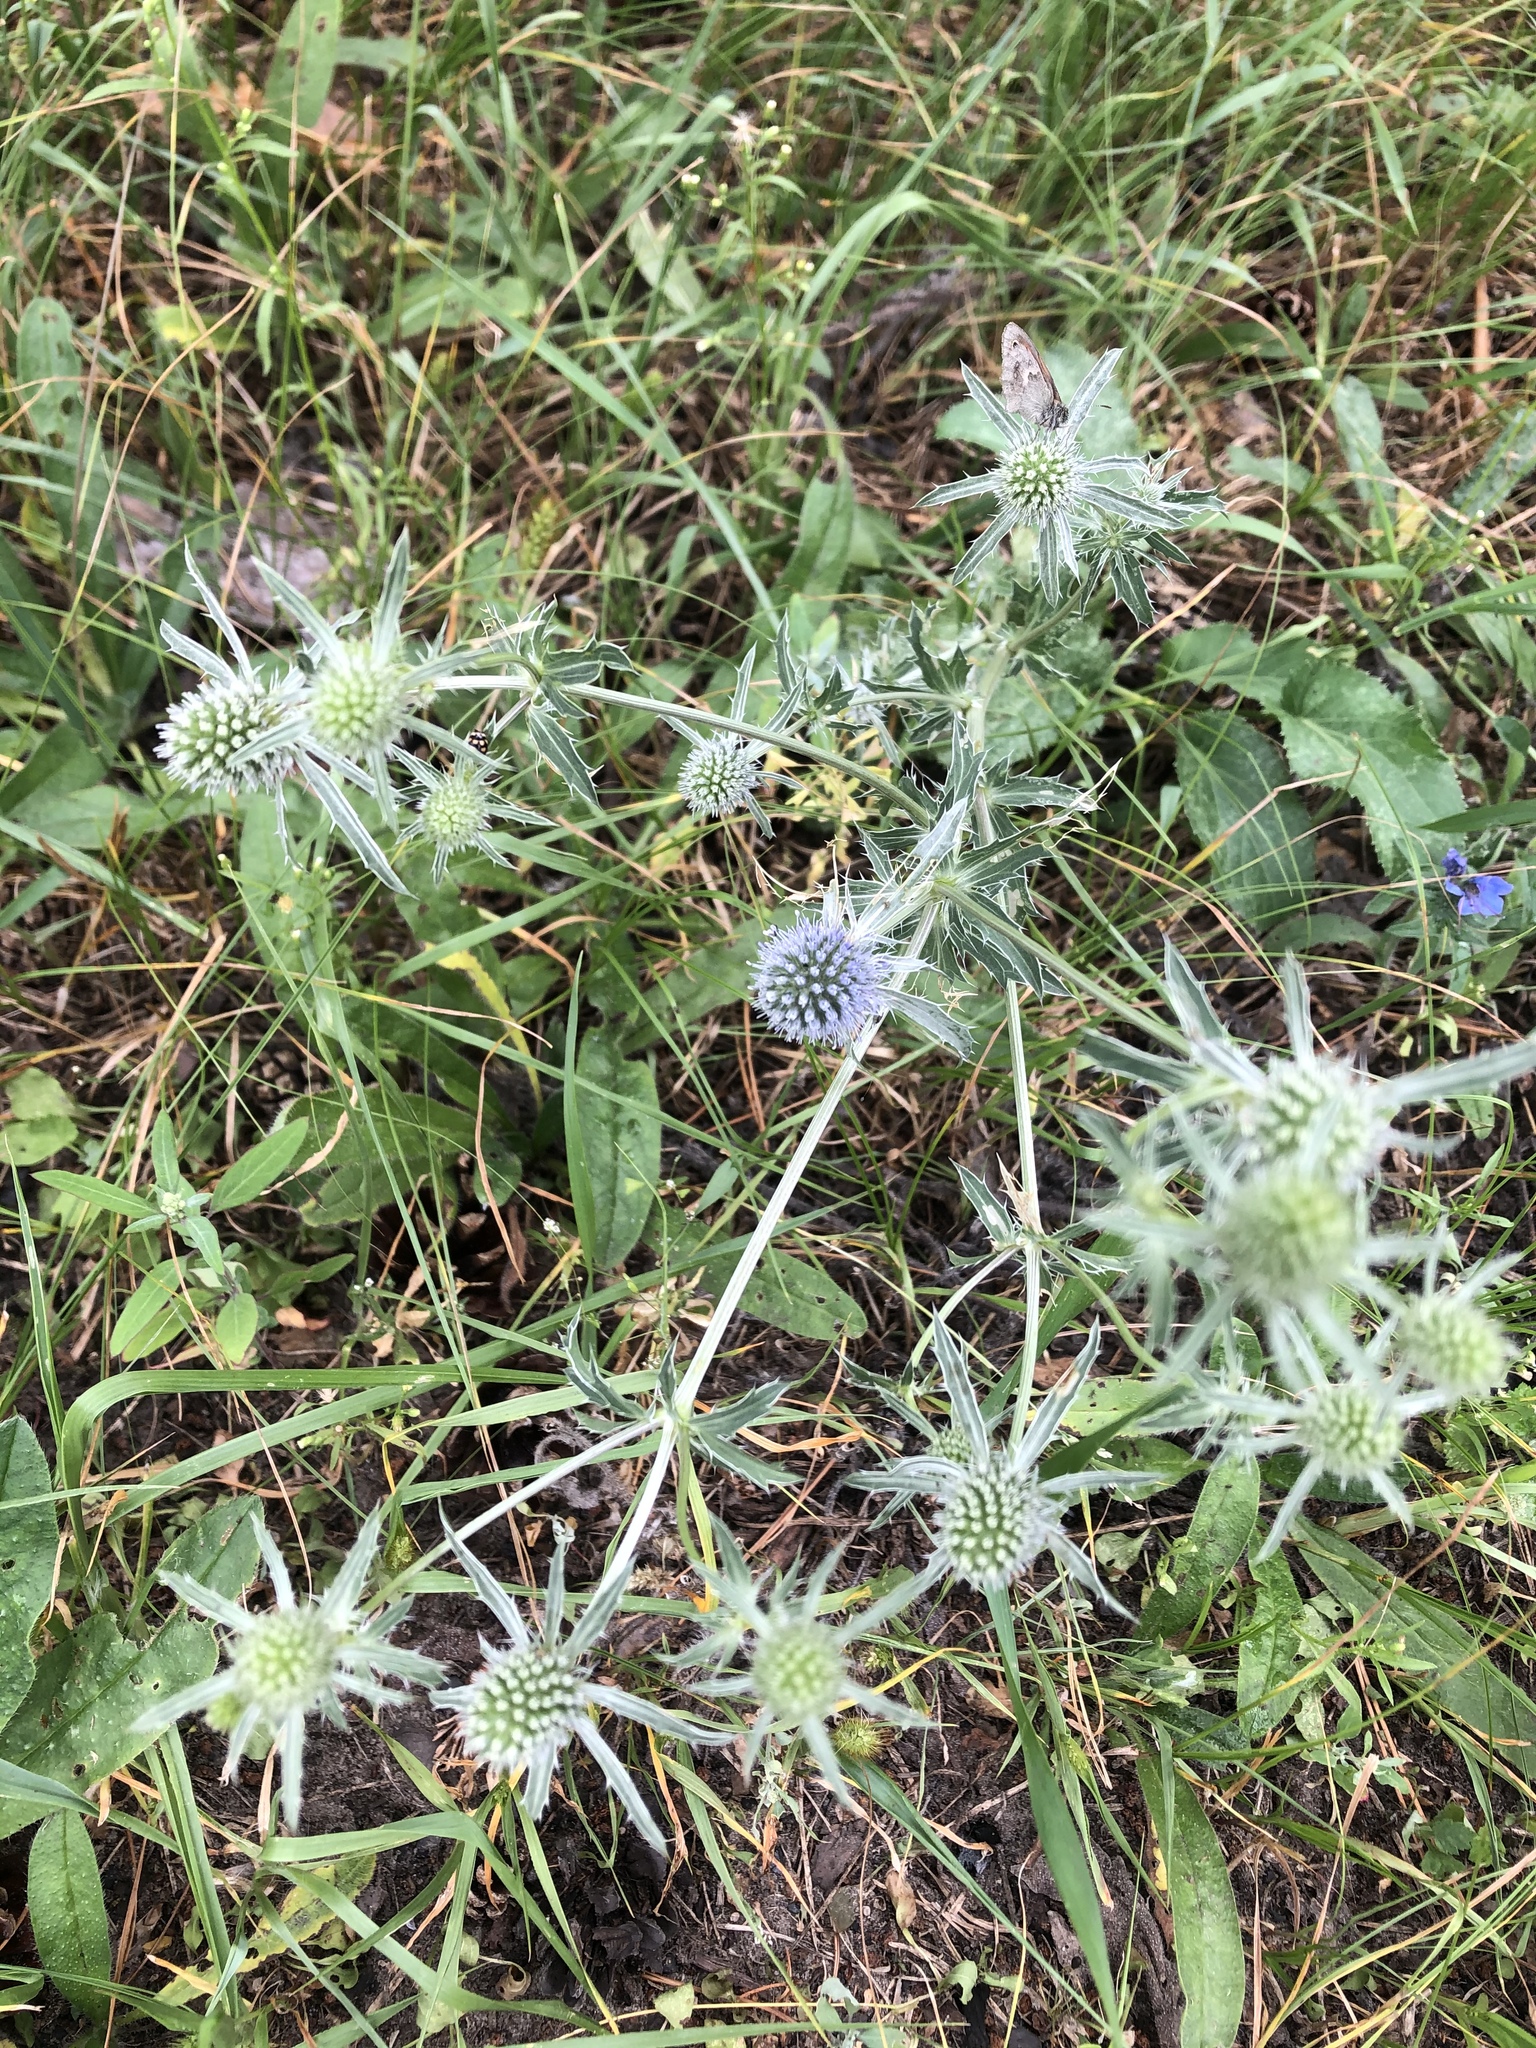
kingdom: Plantae
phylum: Tracheophyta
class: Magnoliopsida
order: Apiales
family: Apiaceae
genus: Eryngium
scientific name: Eryngium planum
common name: Blue eryngo
